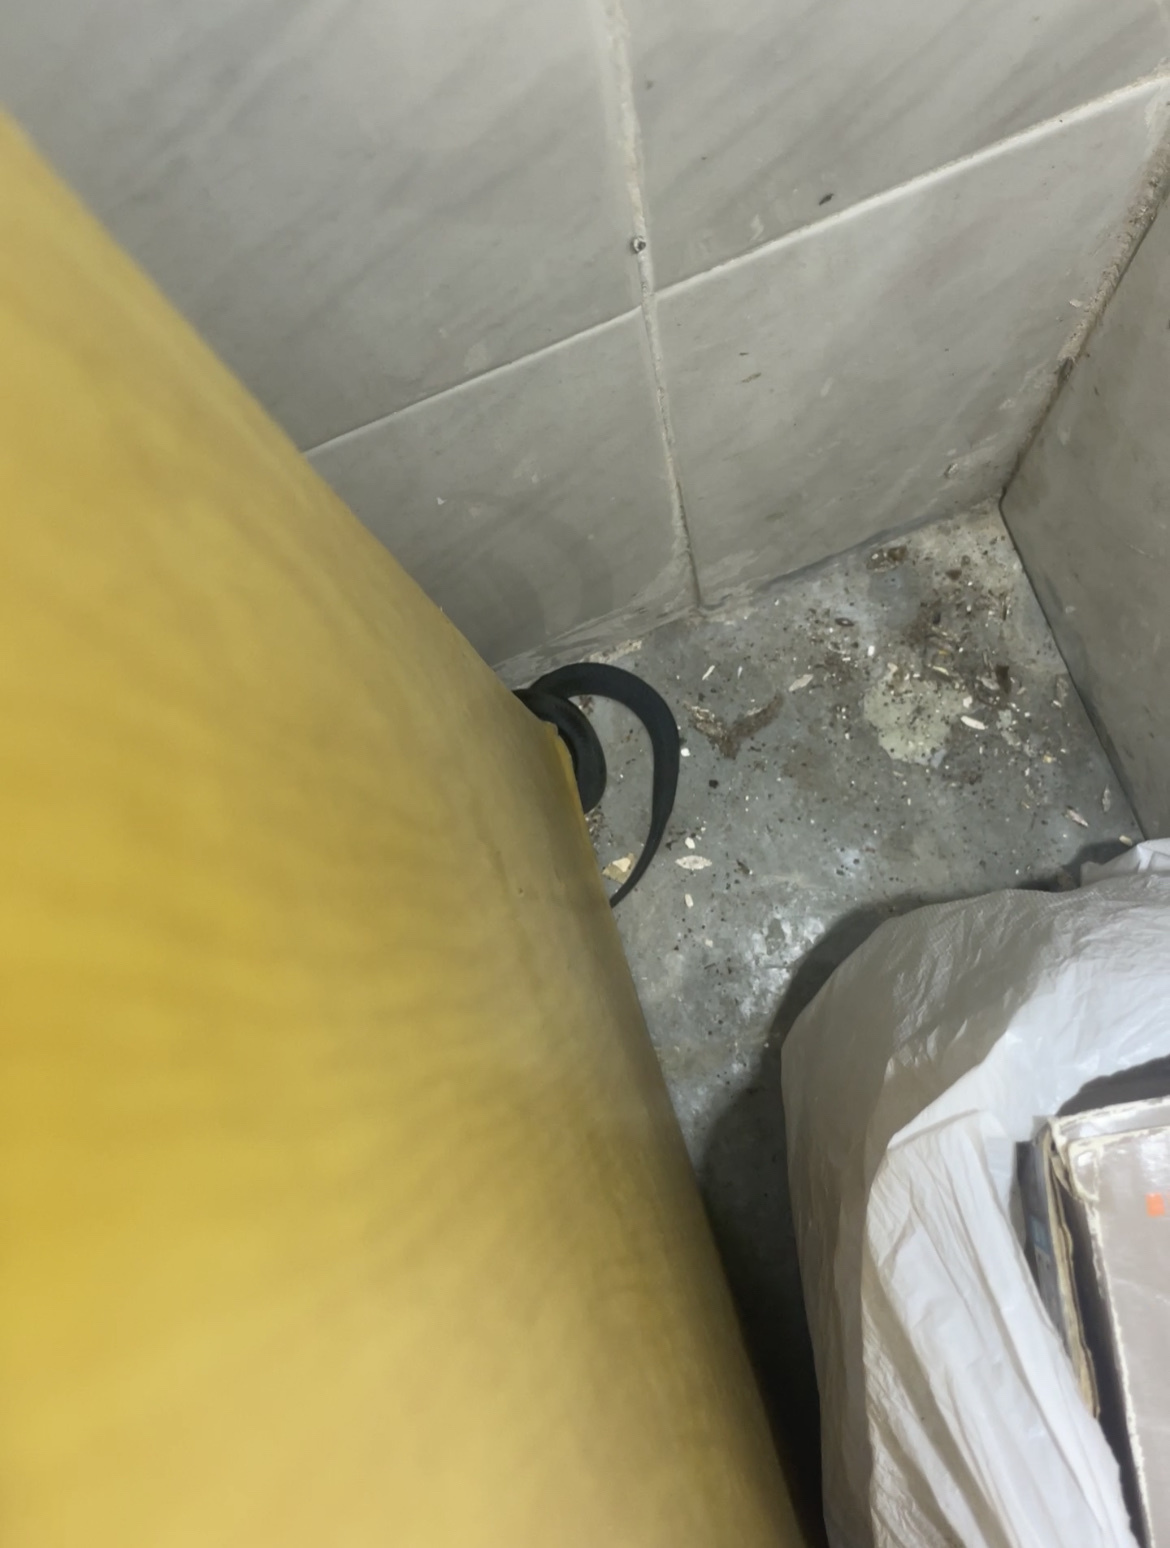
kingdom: Animalia
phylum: Chordata
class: Squamata
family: Elapidae
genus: Naja
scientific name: Naja atra
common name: Chinese cobra
